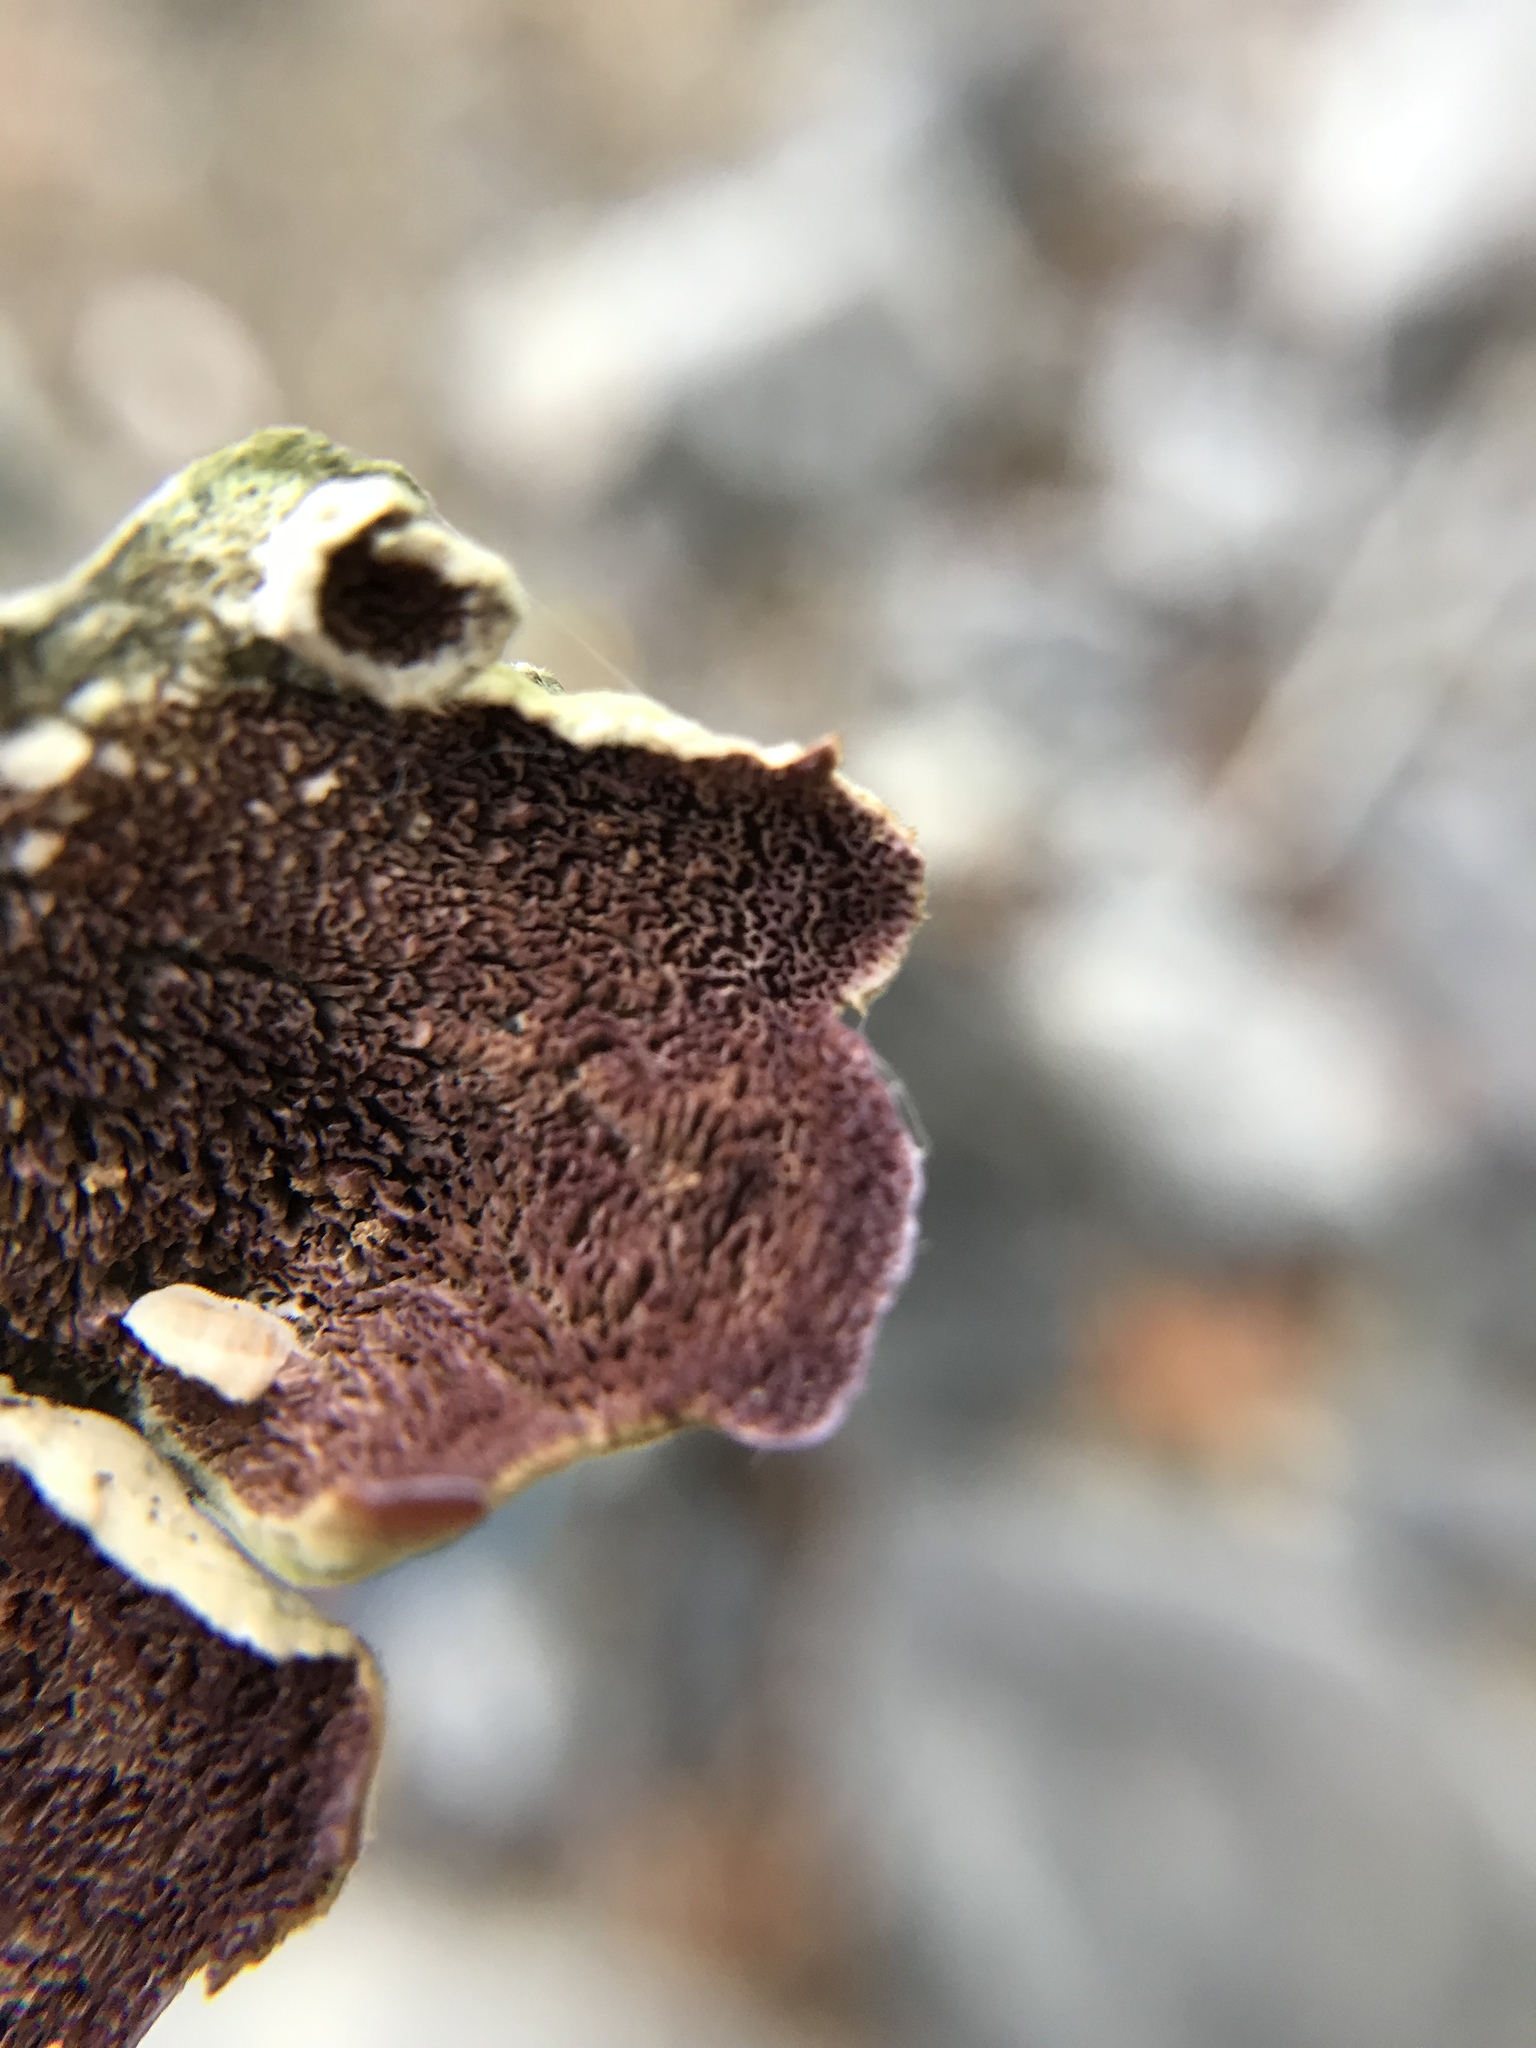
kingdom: Fungi
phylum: Basidiomycota
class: Agaricomycetes
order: Hymenochaetales
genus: Trichaptum
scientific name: Trichaptum biforme
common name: Violet-toothed polypore
